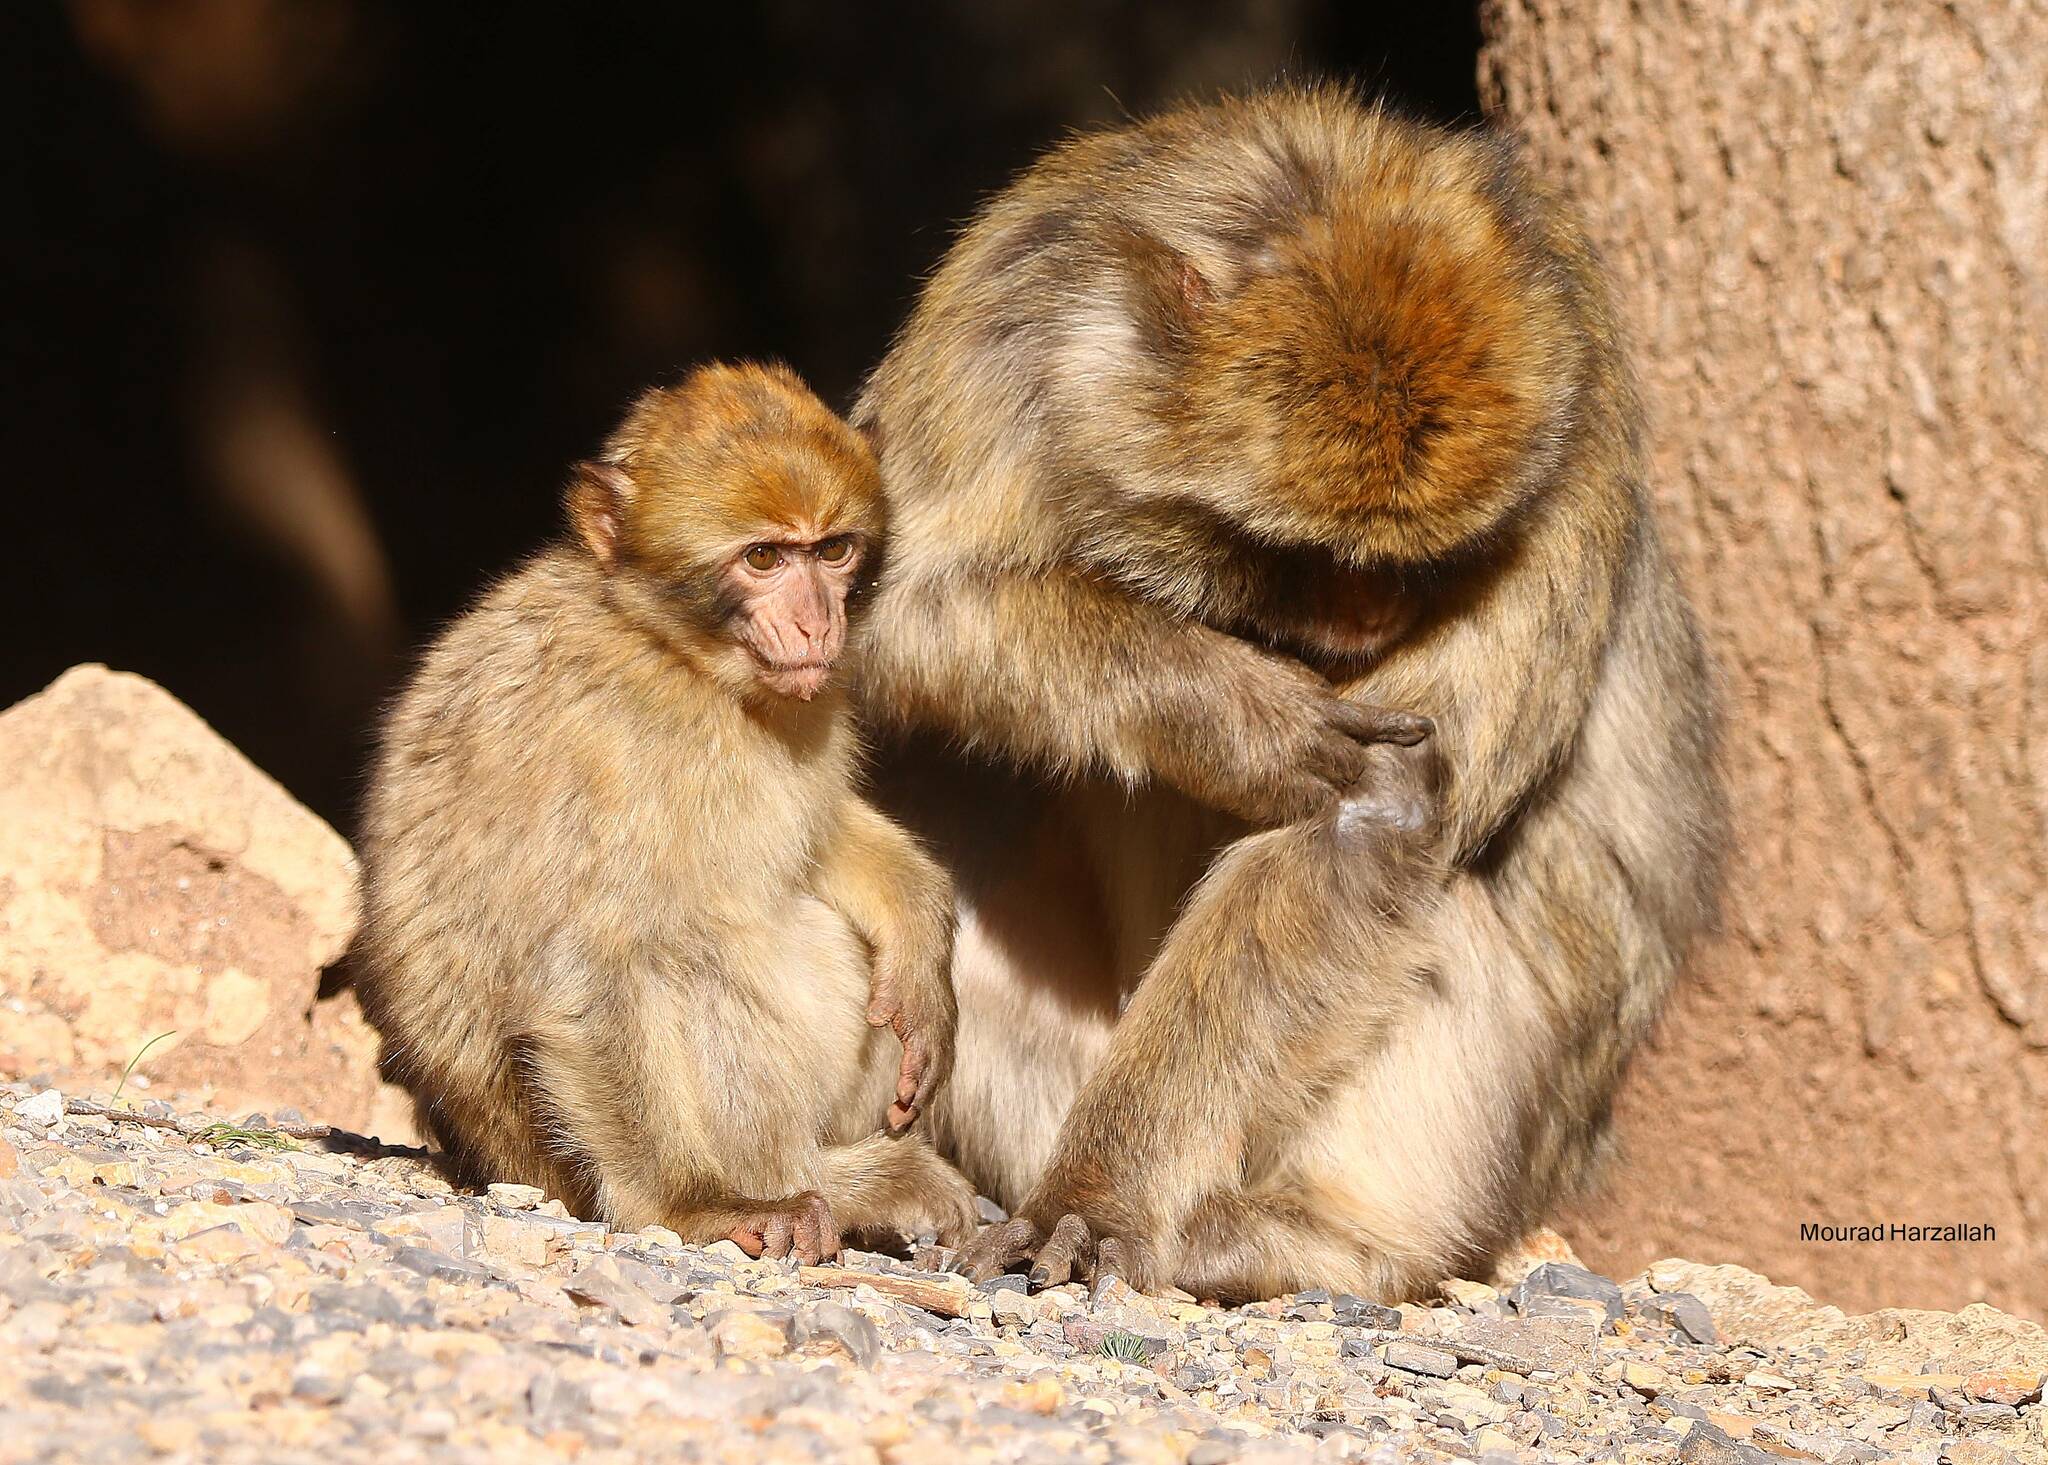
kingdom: Animalia
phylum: Chordata
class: Mammalia
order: Primates
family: Cercopithecidae
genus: Macaca
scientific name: Macaca sylvanus
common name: Barbary macaque
